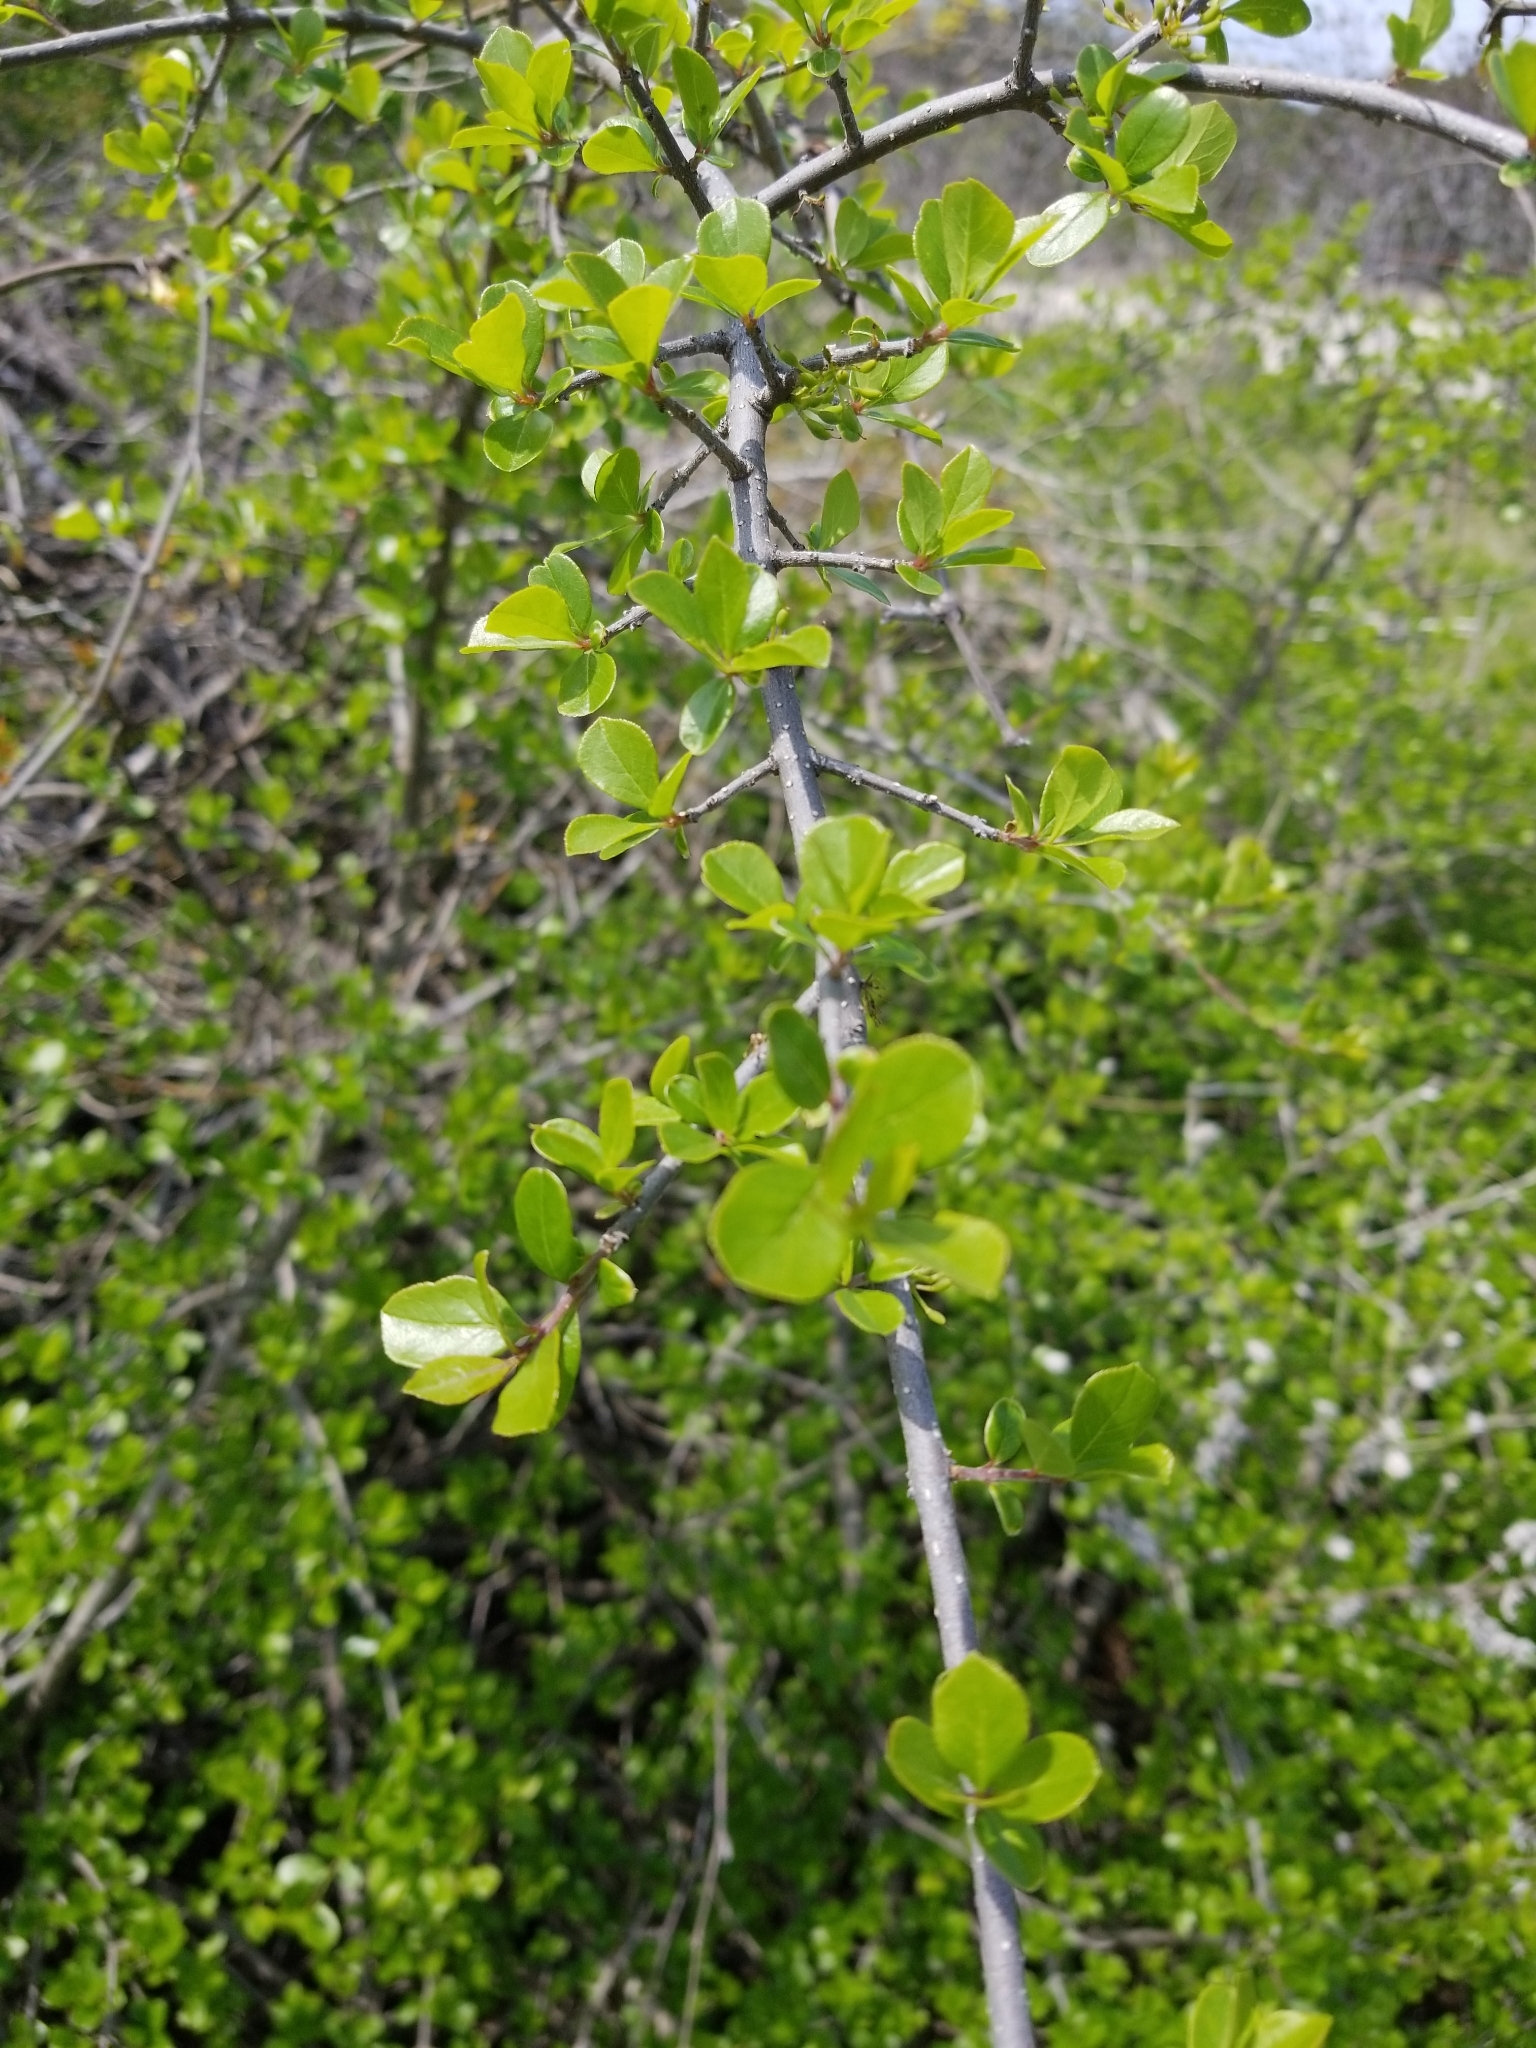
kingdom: Plantae
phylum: Tracheophyta
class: Magnoliopsida
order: Lamiales
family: Oleaceae
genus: Forestiera
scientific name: Forestiera pubescens
